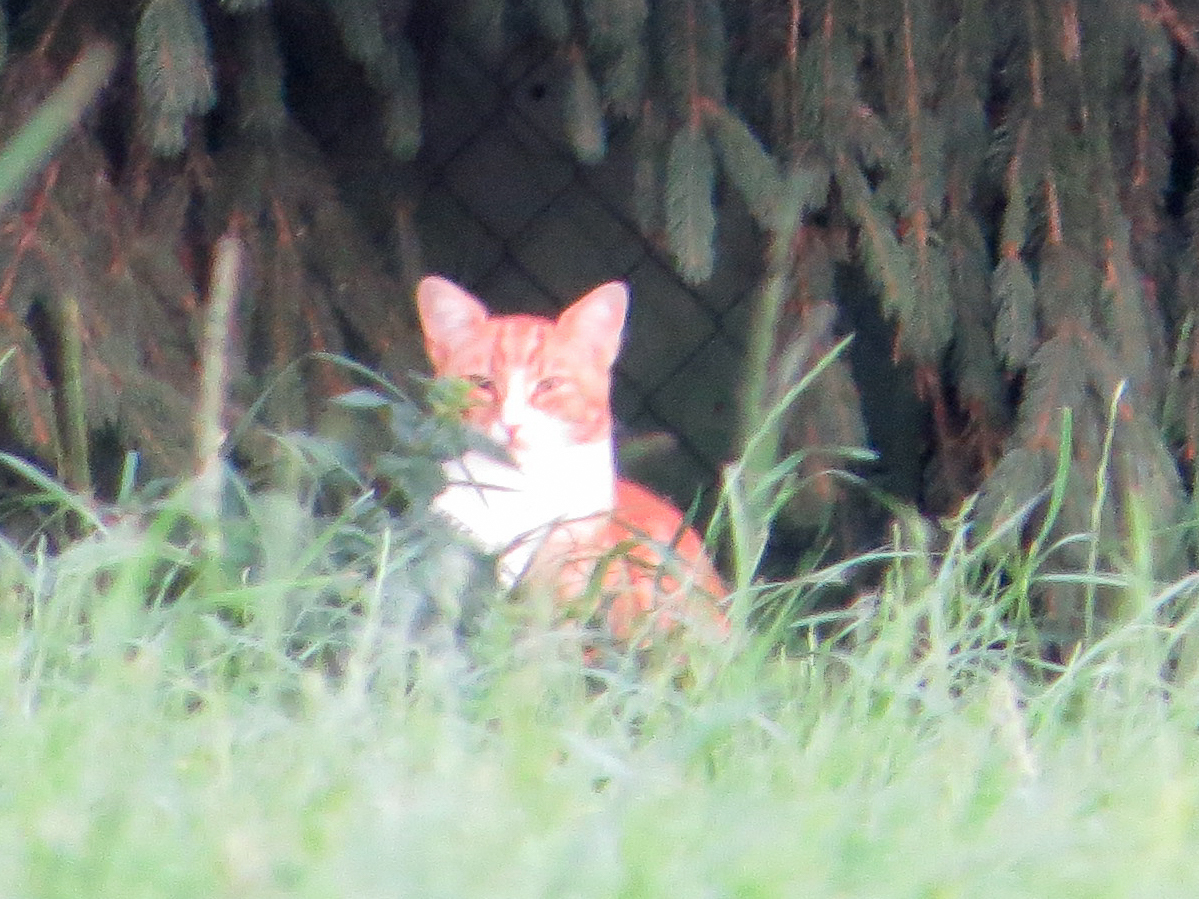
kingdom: Animalia
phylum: Chordata
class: Mammalia
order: Carnivora
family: Felidae
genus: Felis
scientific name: Felis catus
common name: Domestic cat
